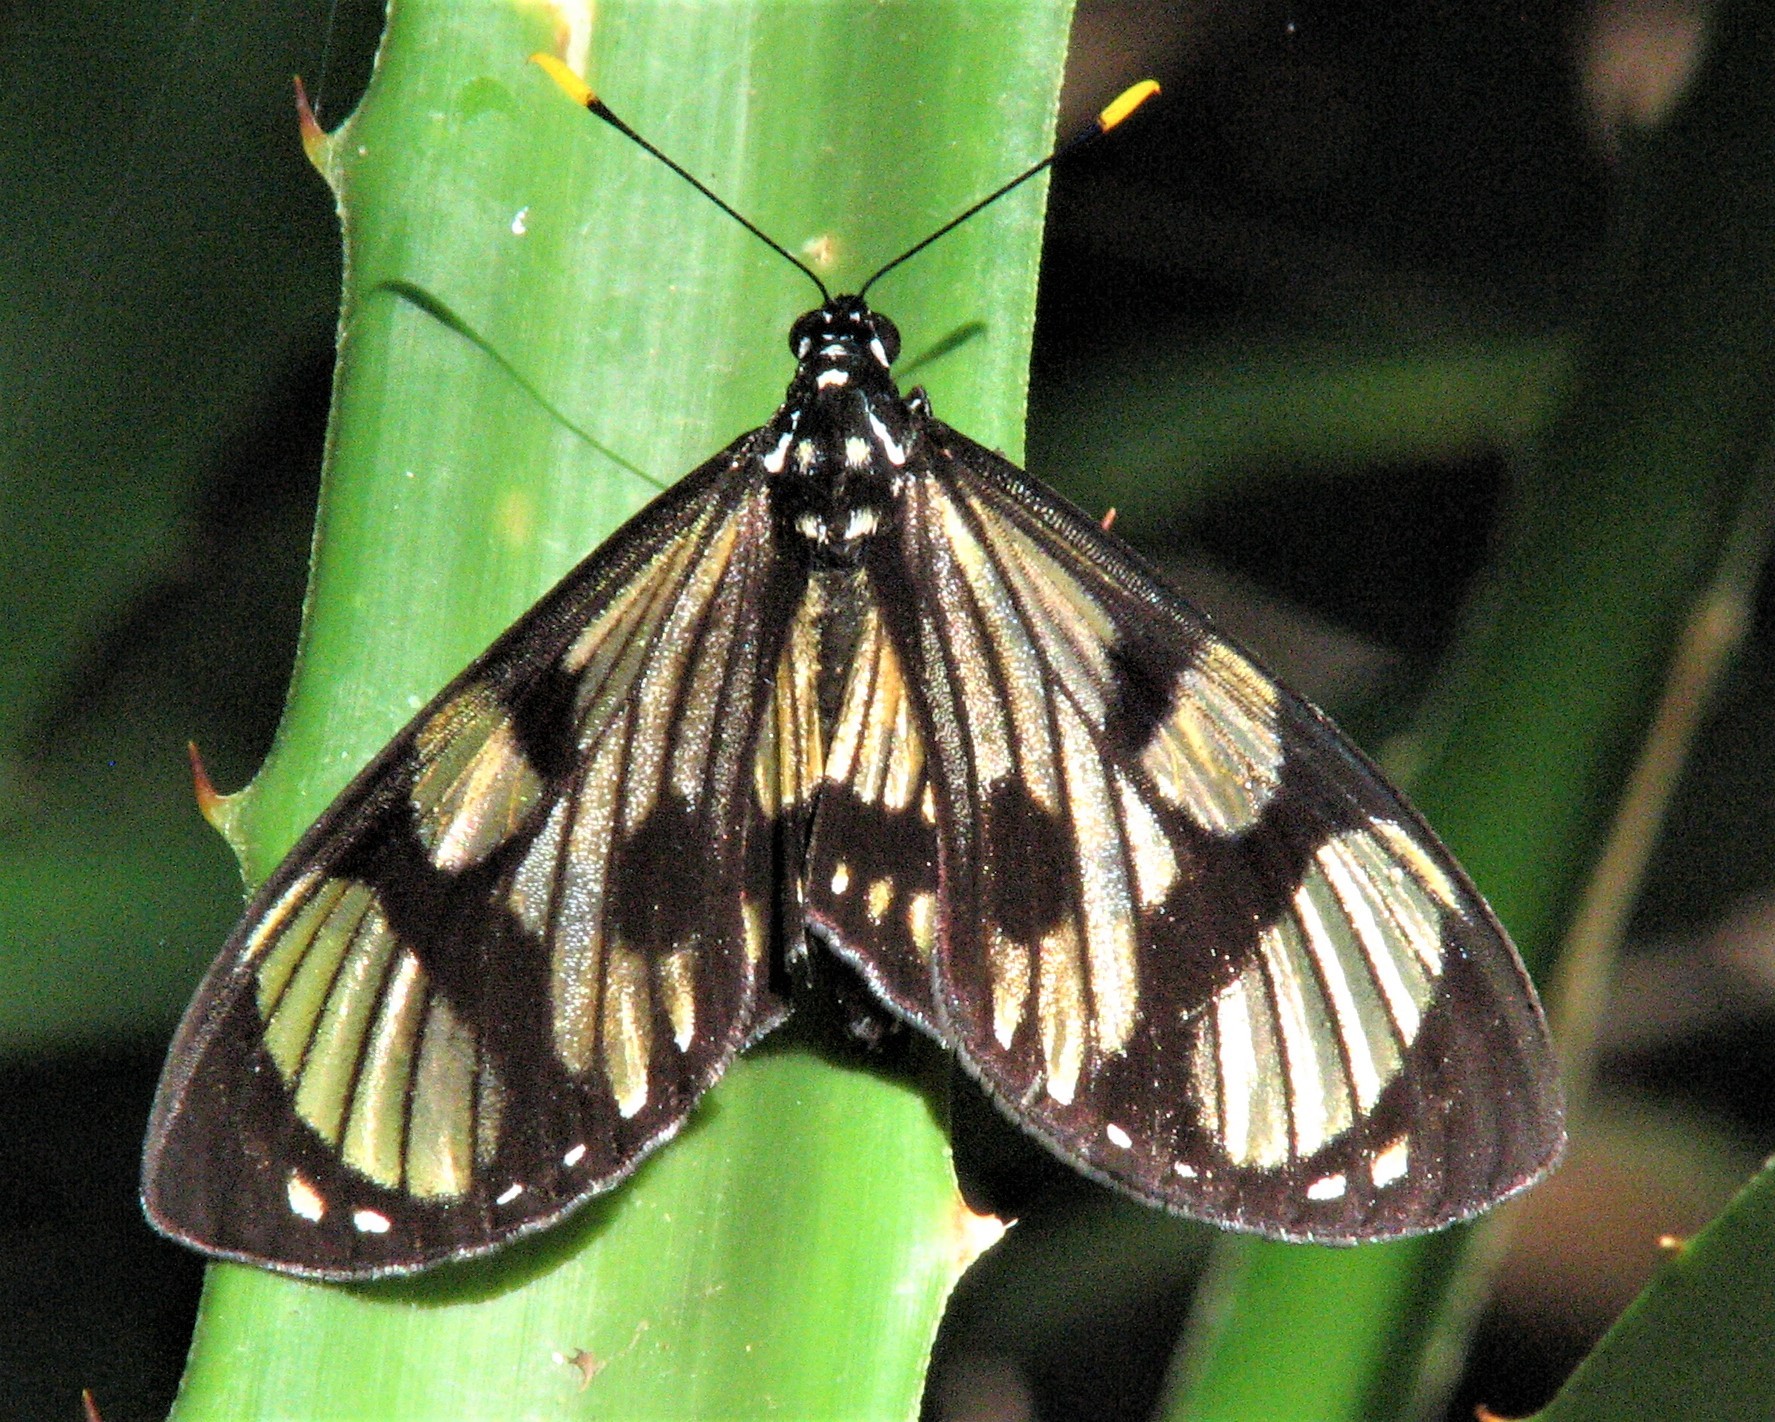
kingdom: Animalia
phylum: Arthropoda
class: Insecta
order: Lepidoptera
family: Castniidae
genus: Gazera
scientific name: Gazera heliconioides
